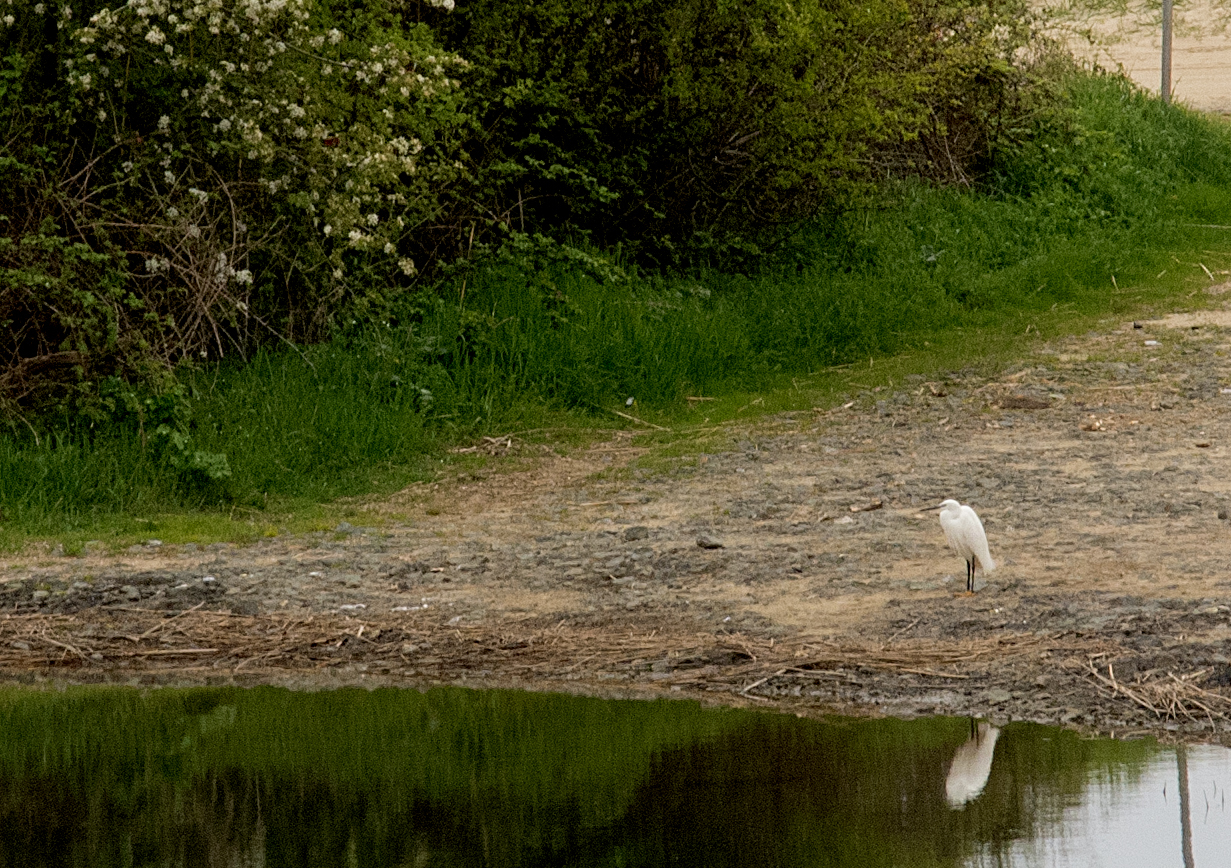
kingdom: Animalia
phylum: Chordata
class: Aves
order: Pelecaniformes
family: Ardeidae
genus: Egretta
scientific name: Egretta garzetta
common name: Little egret
